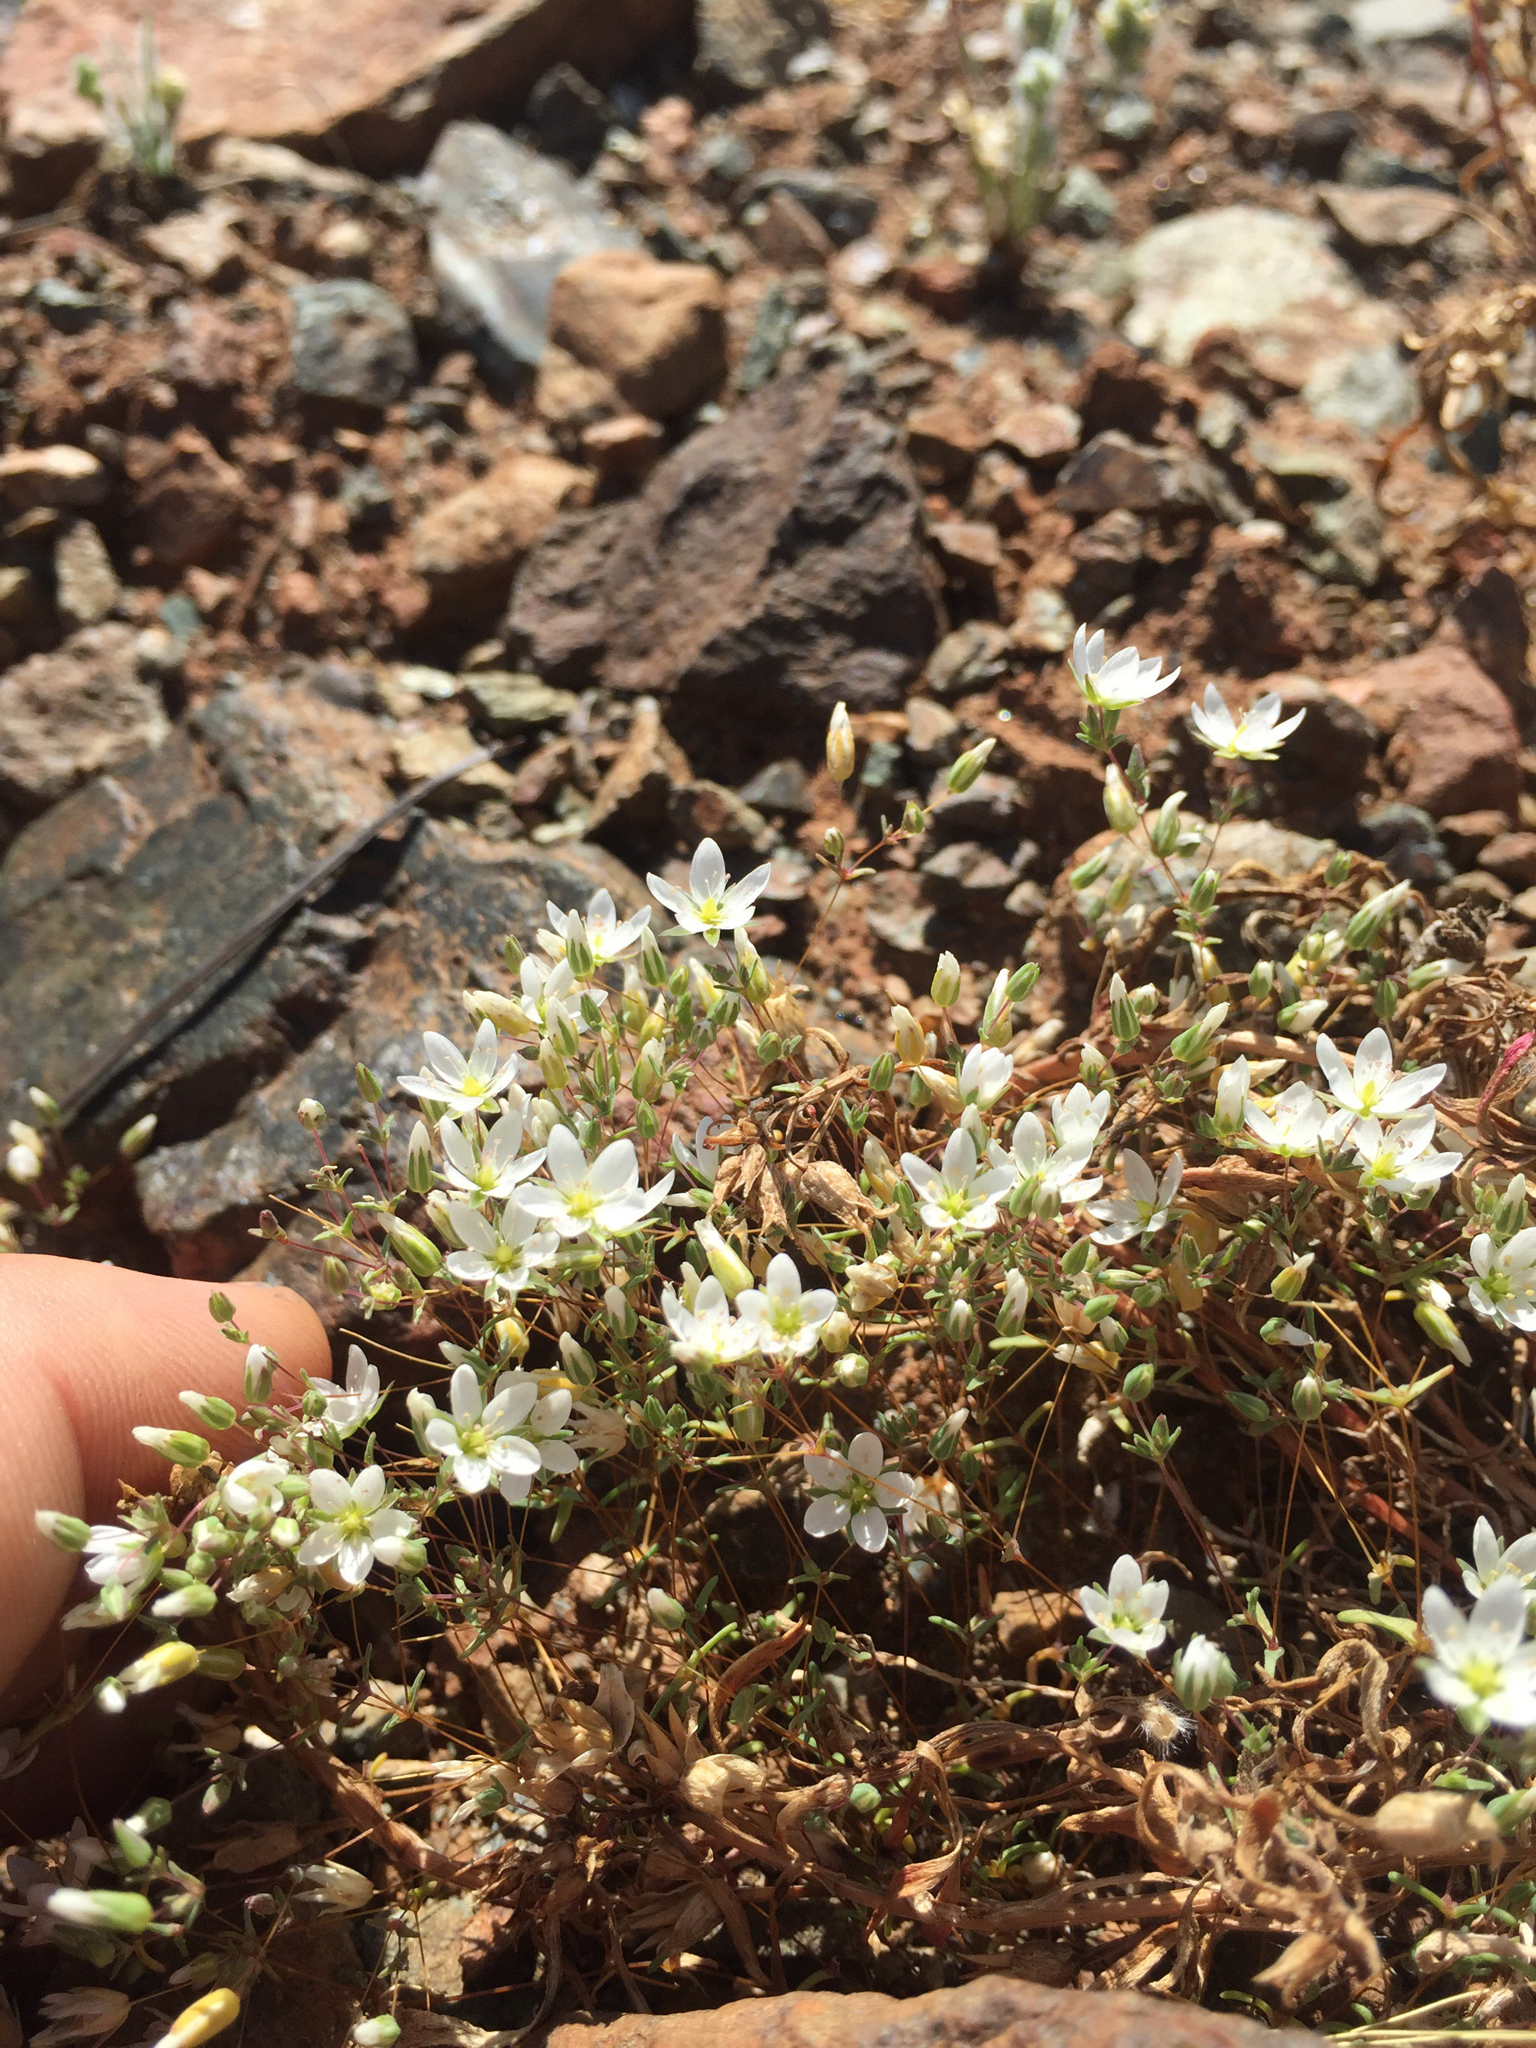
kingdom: Plantae
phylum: Tracheophyta
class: Magnoliopsida
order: Caryophyllales
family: Caryophyllaceae
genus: Sabulina
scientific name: Sabulina californica
